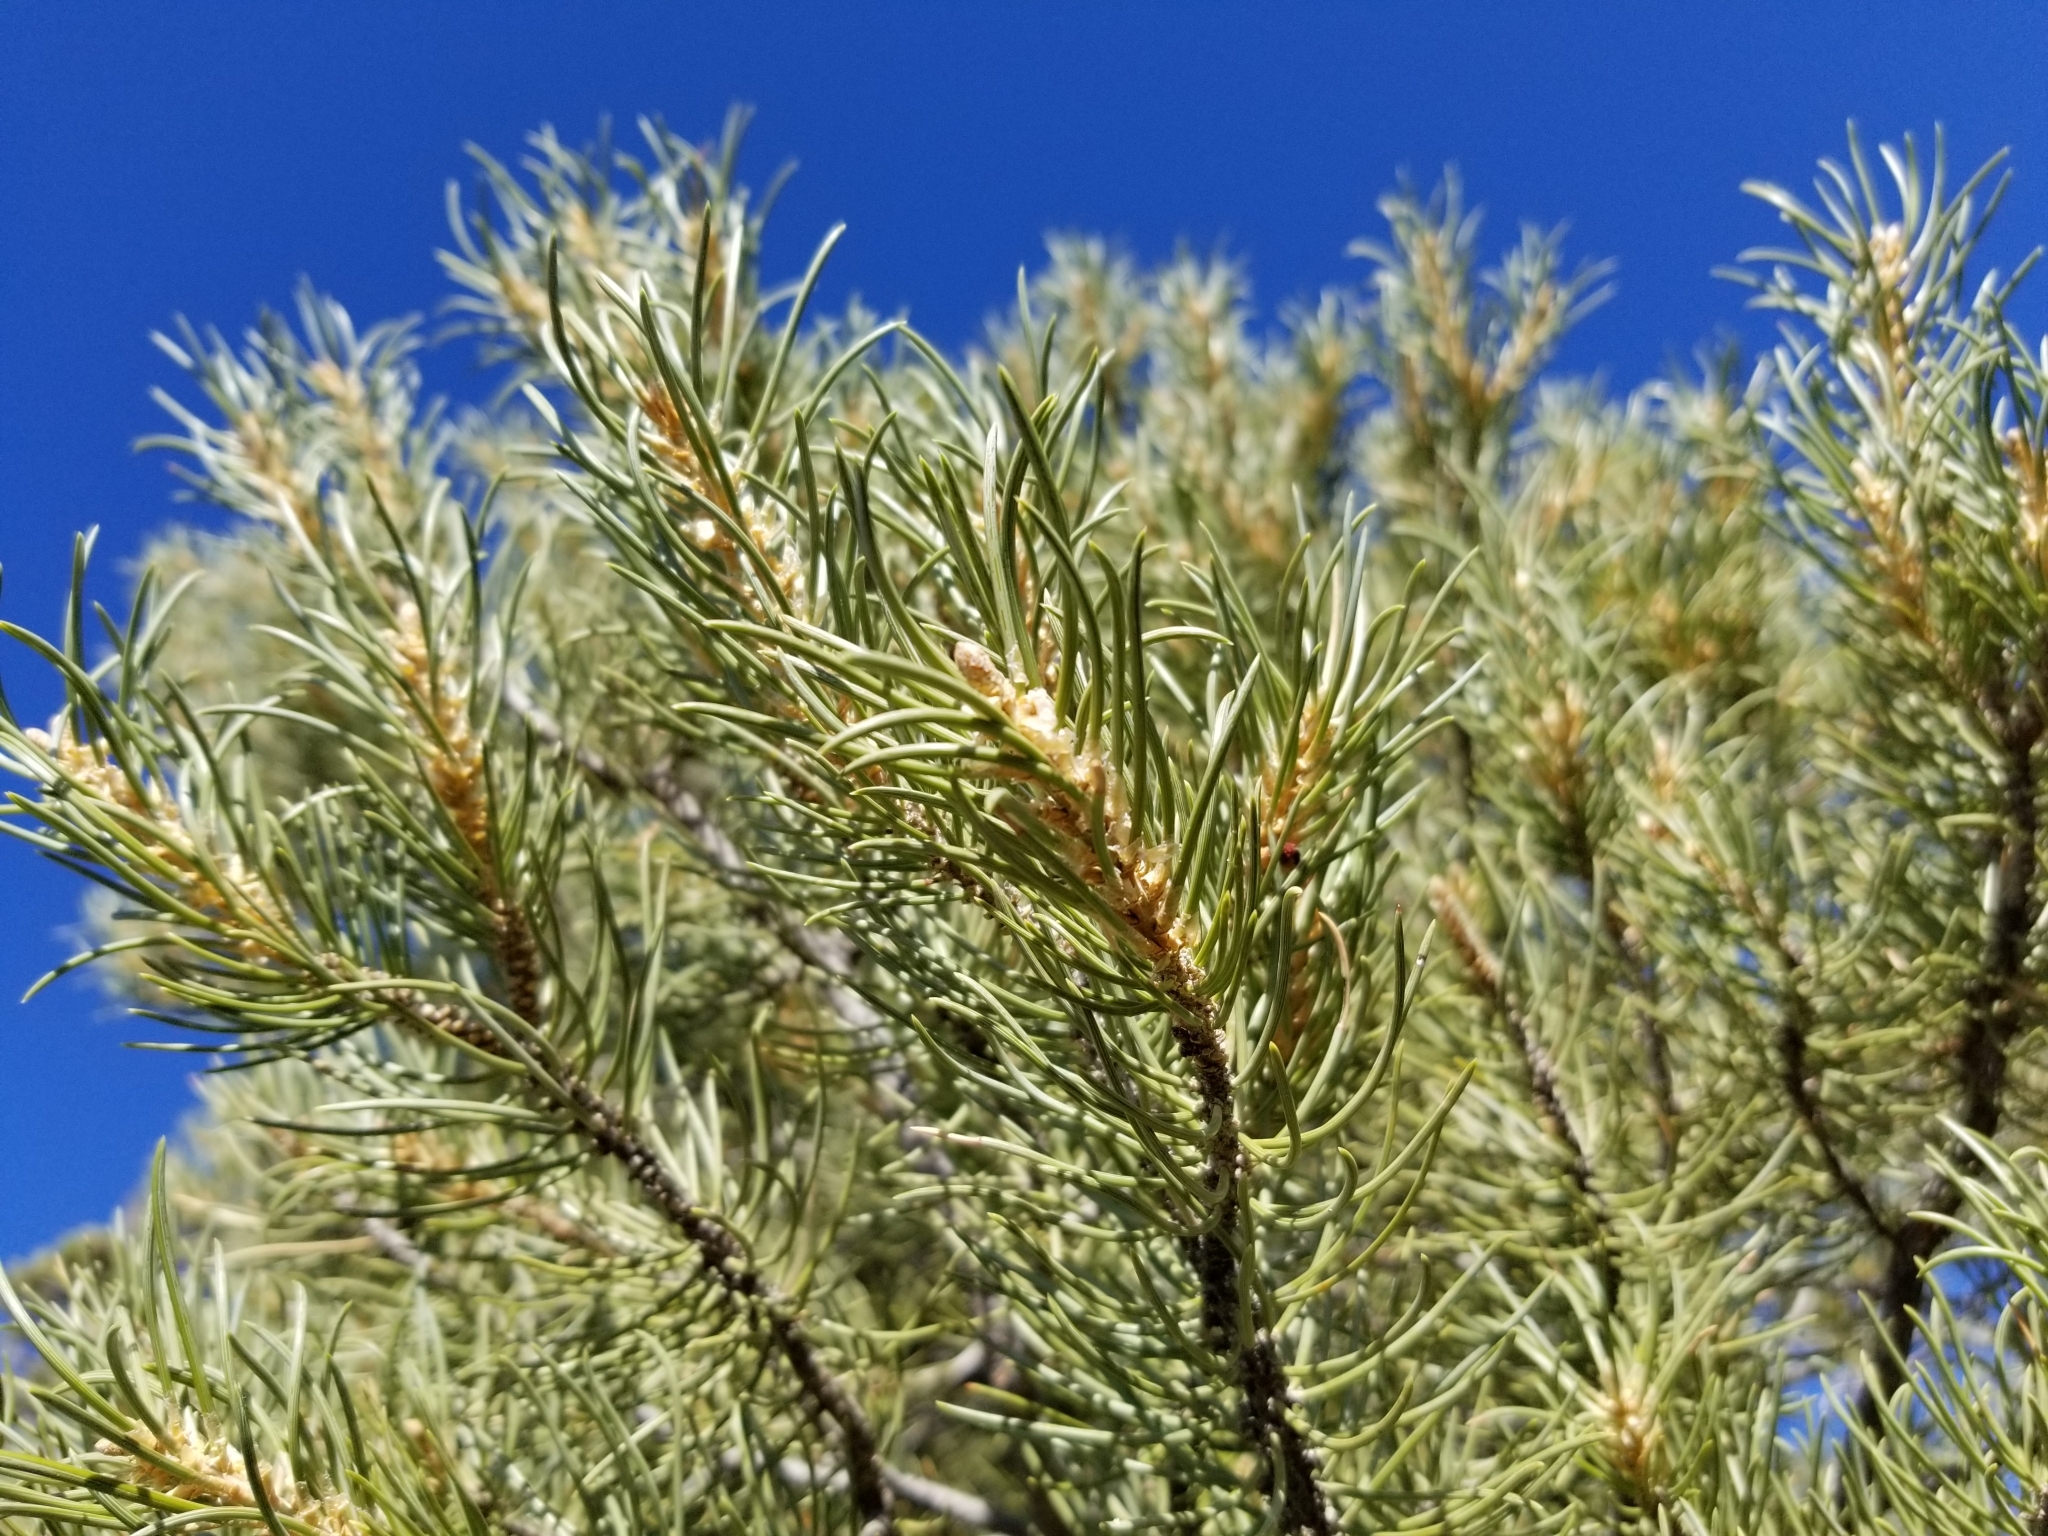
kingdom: Plantae
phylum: Tracheophyta
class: Pinopsida
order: Pinales
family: Pinaceae
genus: Pinus
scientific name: Pinus monophylla
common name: One-leaved nut pine
